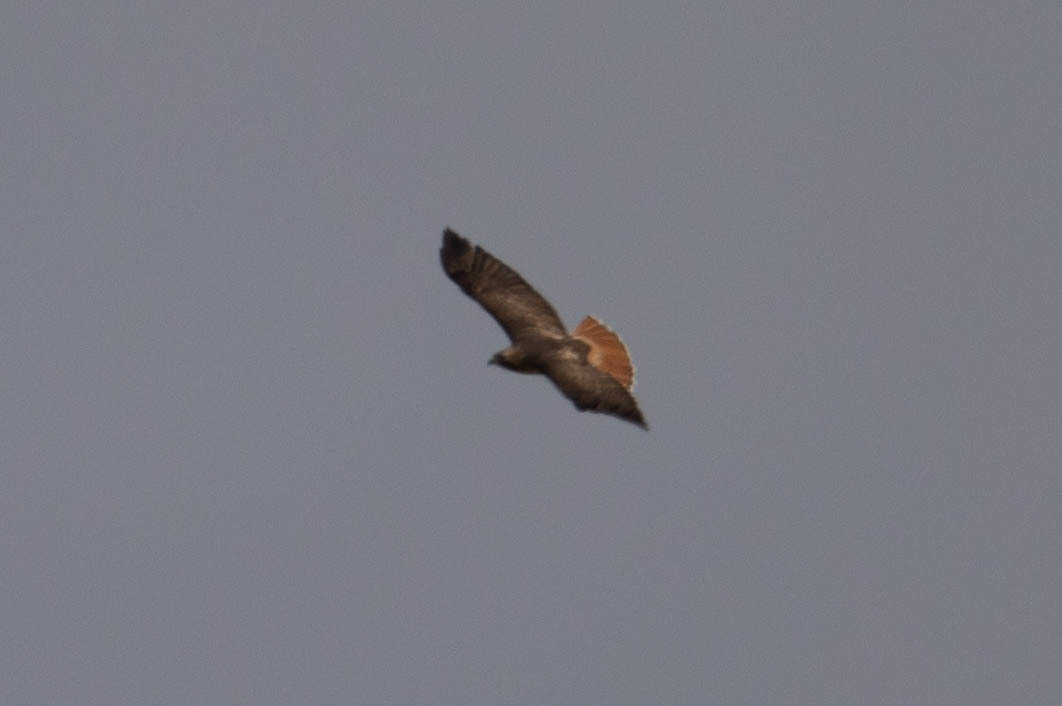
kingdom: Animalia
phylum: Chordata
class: Aves
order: Accipitriformes
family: Accipitridae
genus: Buteo
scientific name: Buteo jamaicensis
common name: Red-tailed hawk
